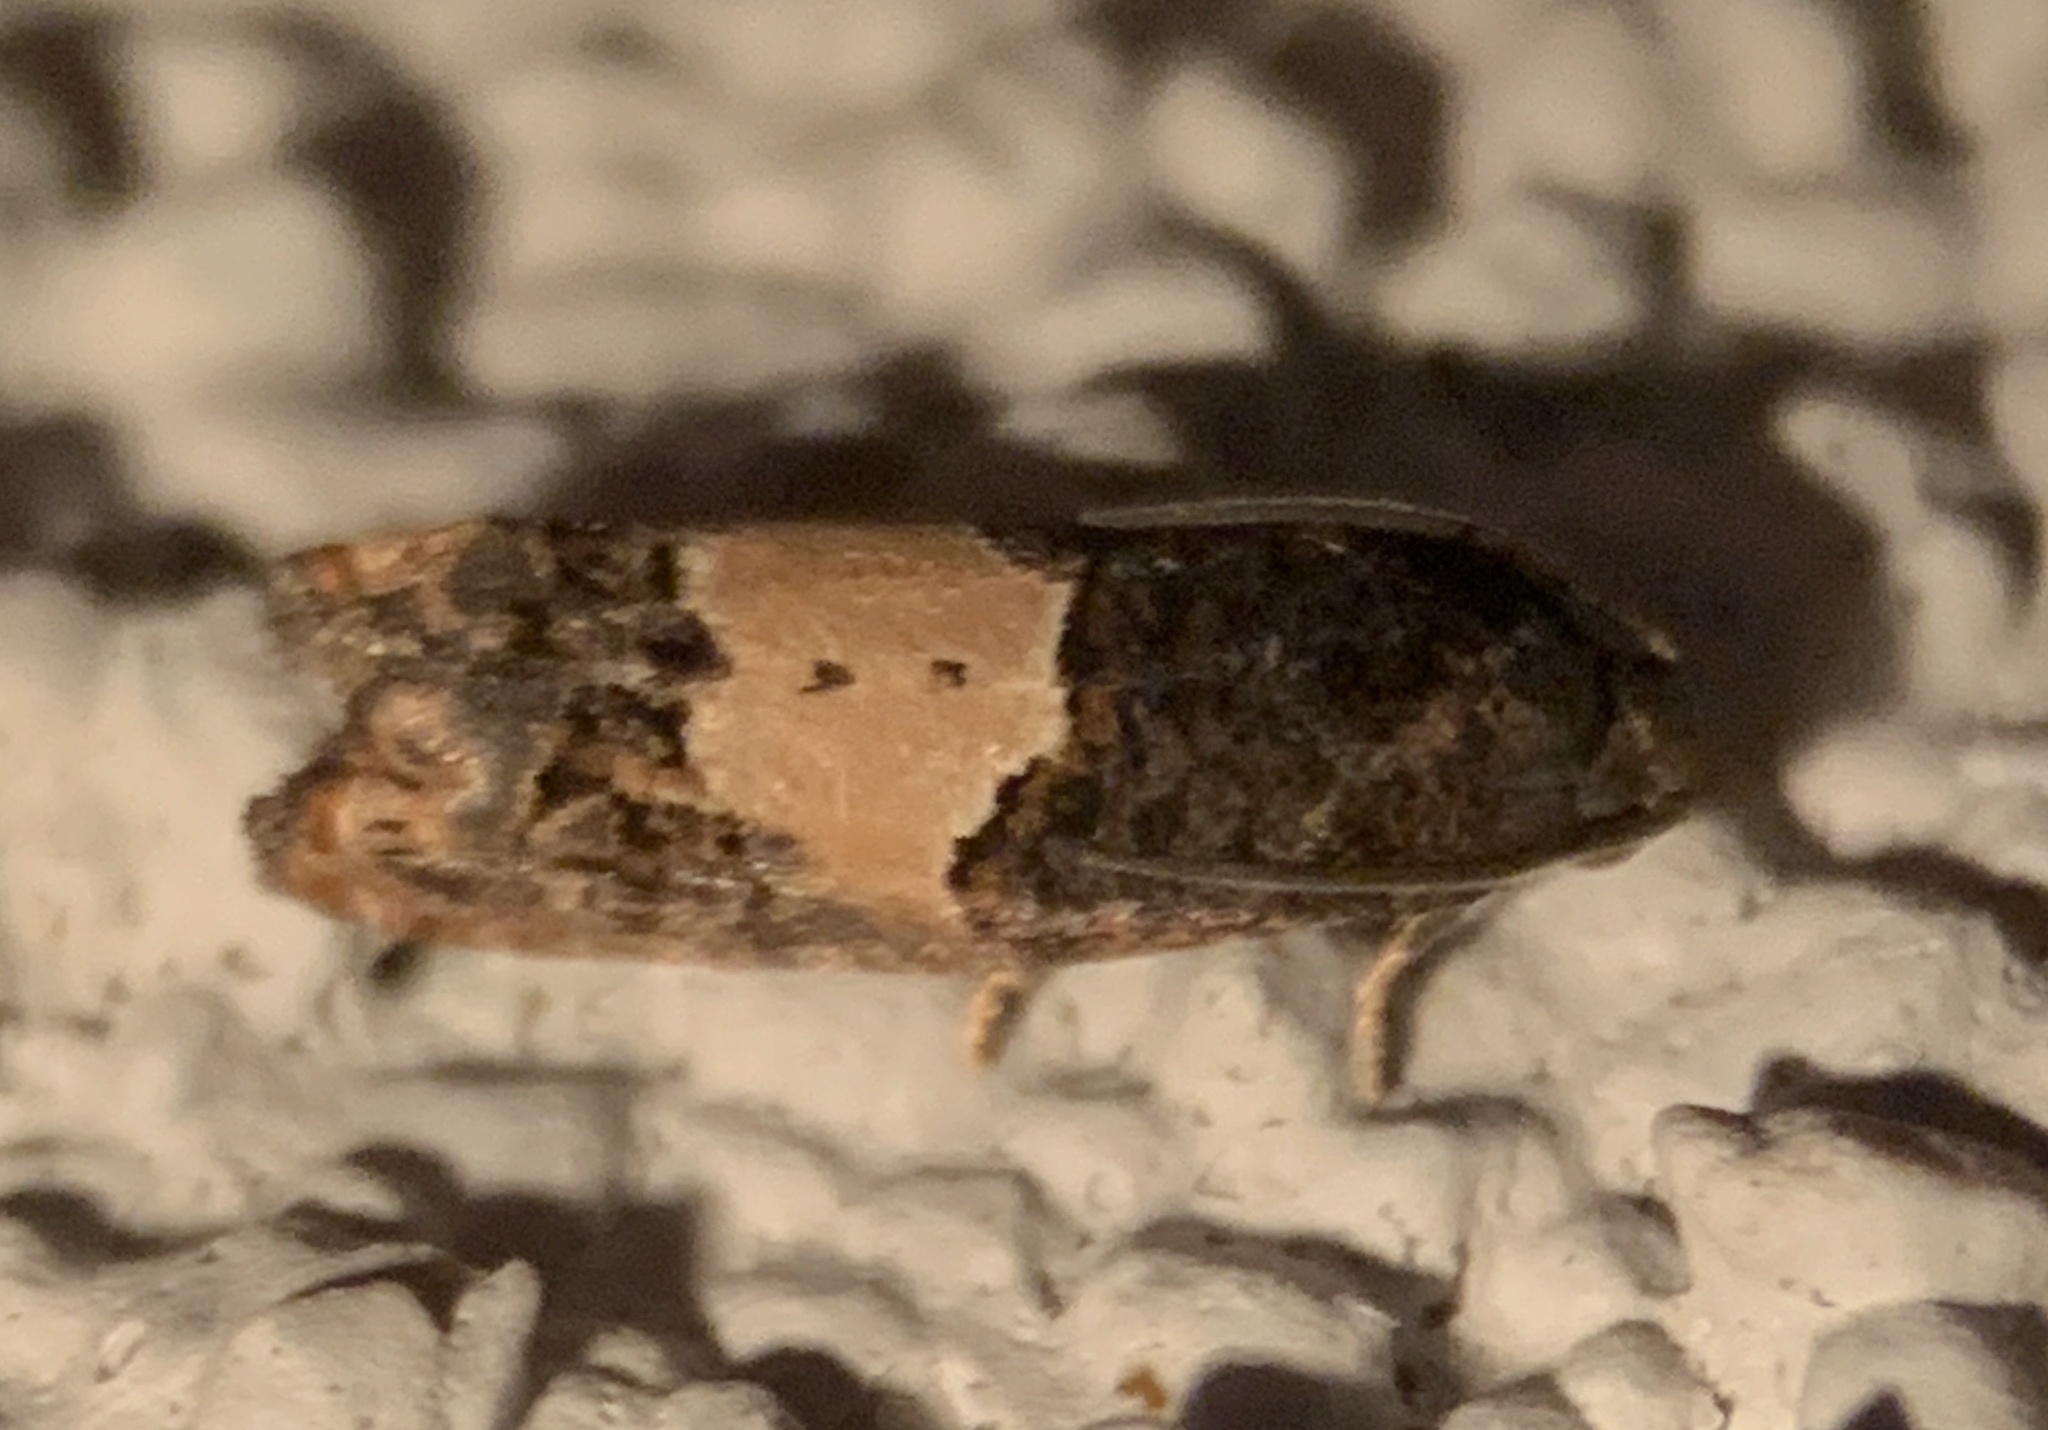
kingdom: Animalia
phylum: Arthropoda
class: Insecta
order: Lepidoptera
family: Tortricidae
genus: Epiblema
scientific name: Epiblema glenni
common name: Glenn's epiblema
